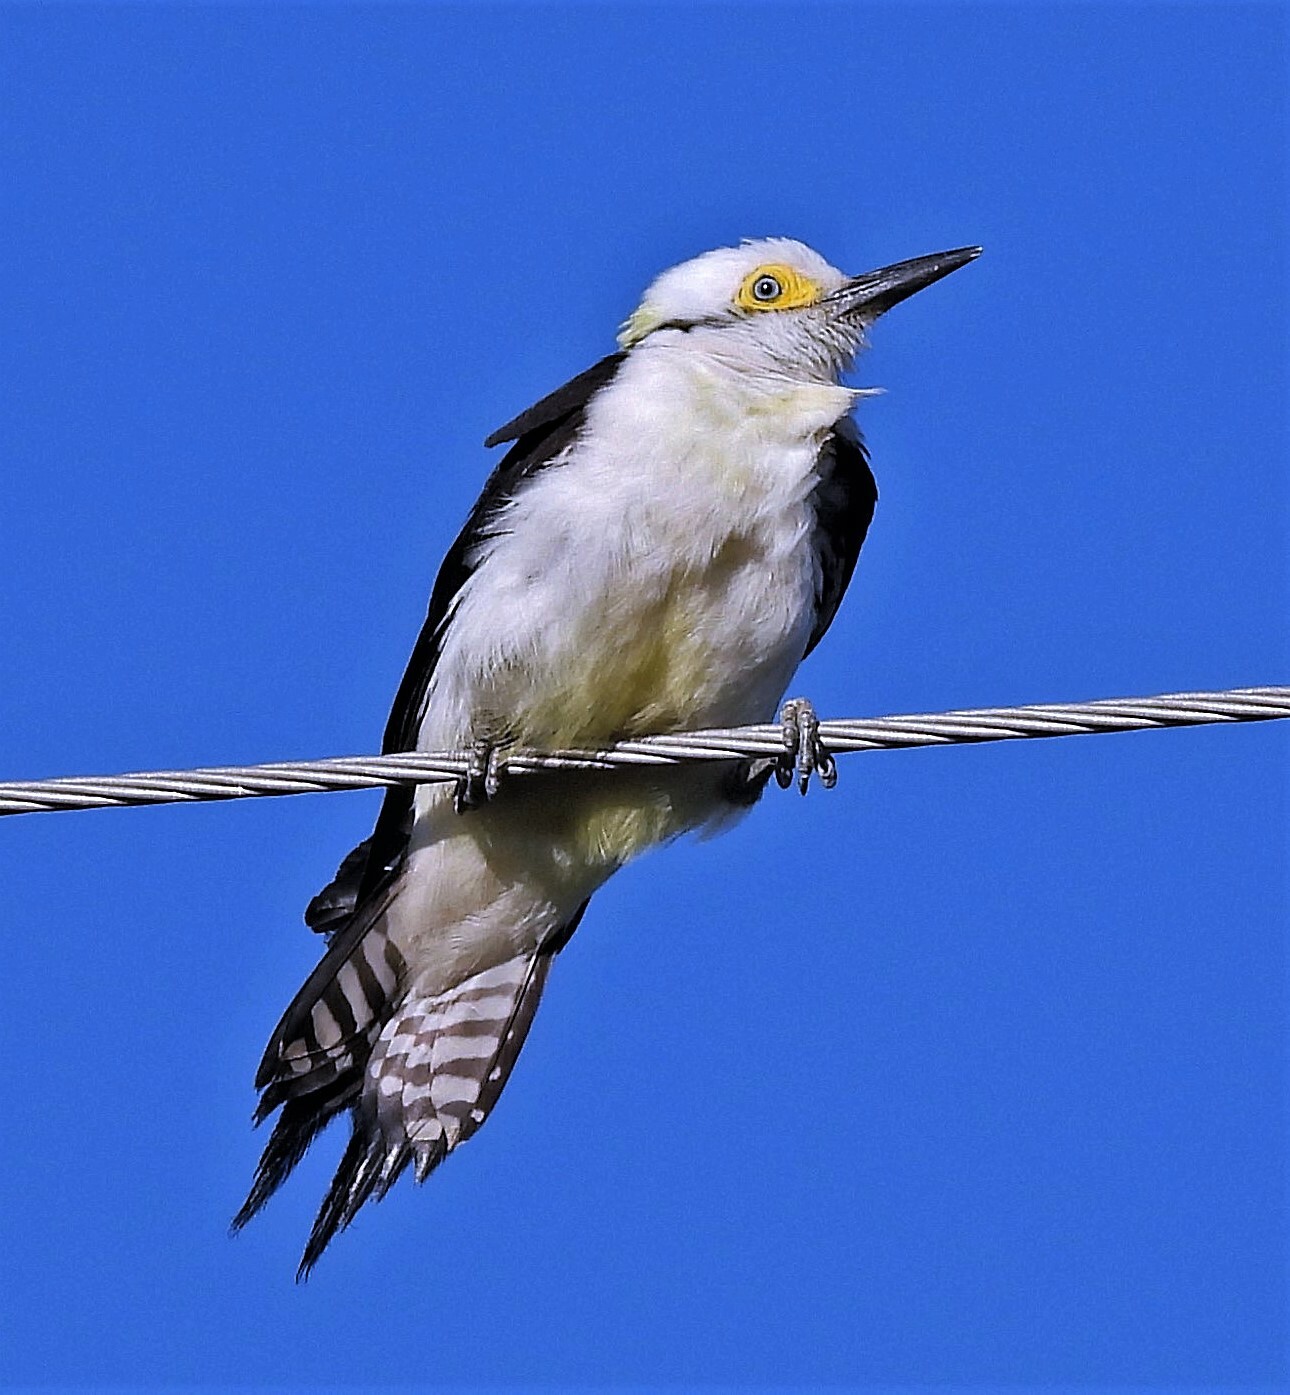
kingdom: Animalia
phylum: Chordata
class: Aves
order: Piciformes
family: Picidae
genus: Melanerpes
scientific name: Melanerpes candidus
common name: White woodpecker
